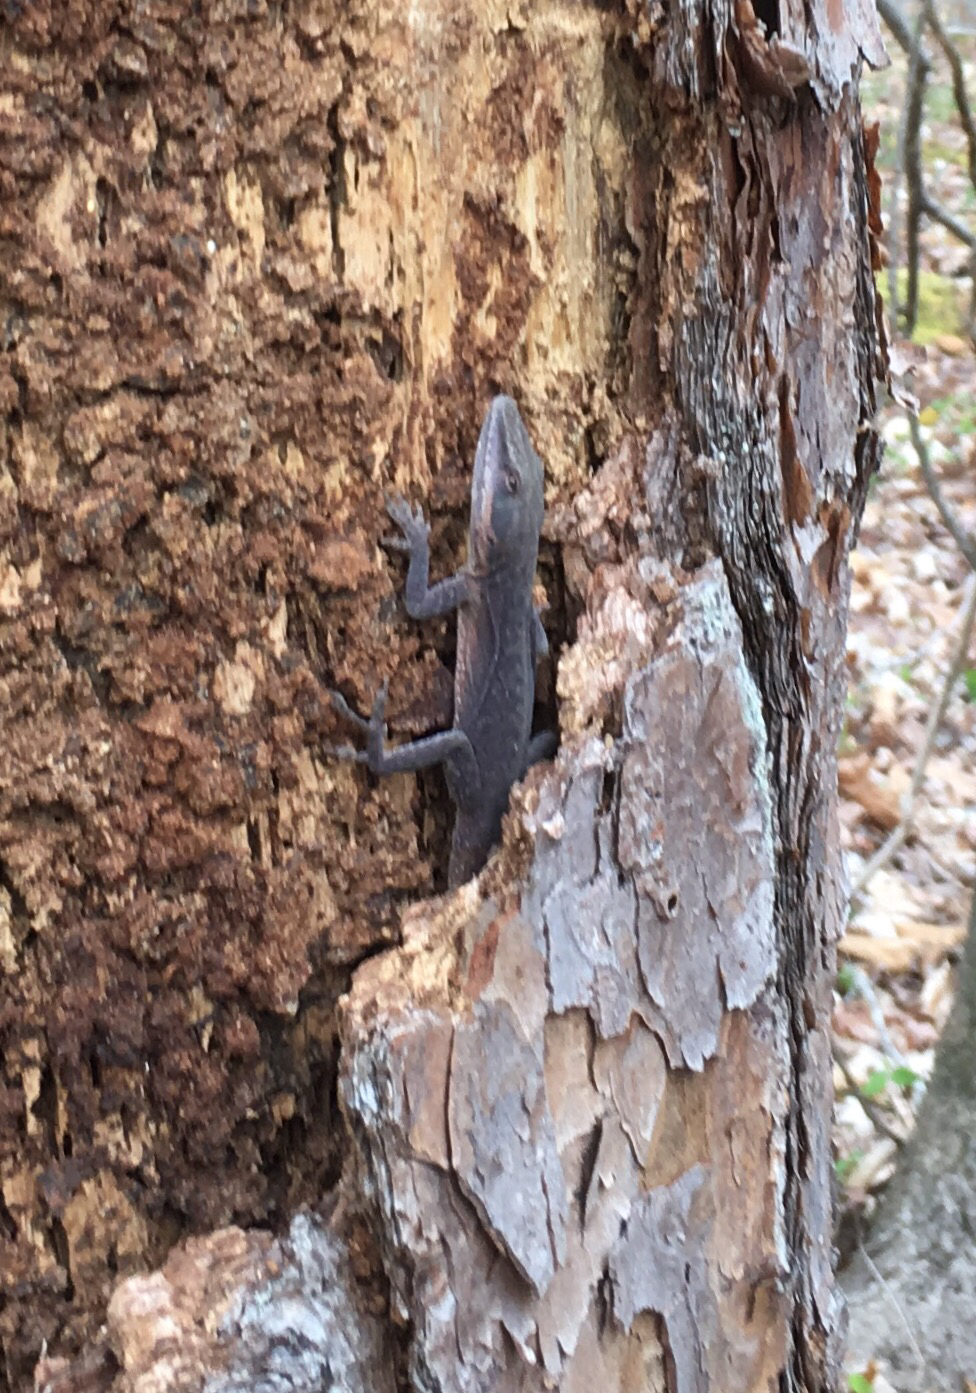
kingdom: Animalia
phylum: Chordata
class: Squamata
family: Dactyloidae
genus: Anolis
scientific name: Anolis carolinensis
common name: Green anole
